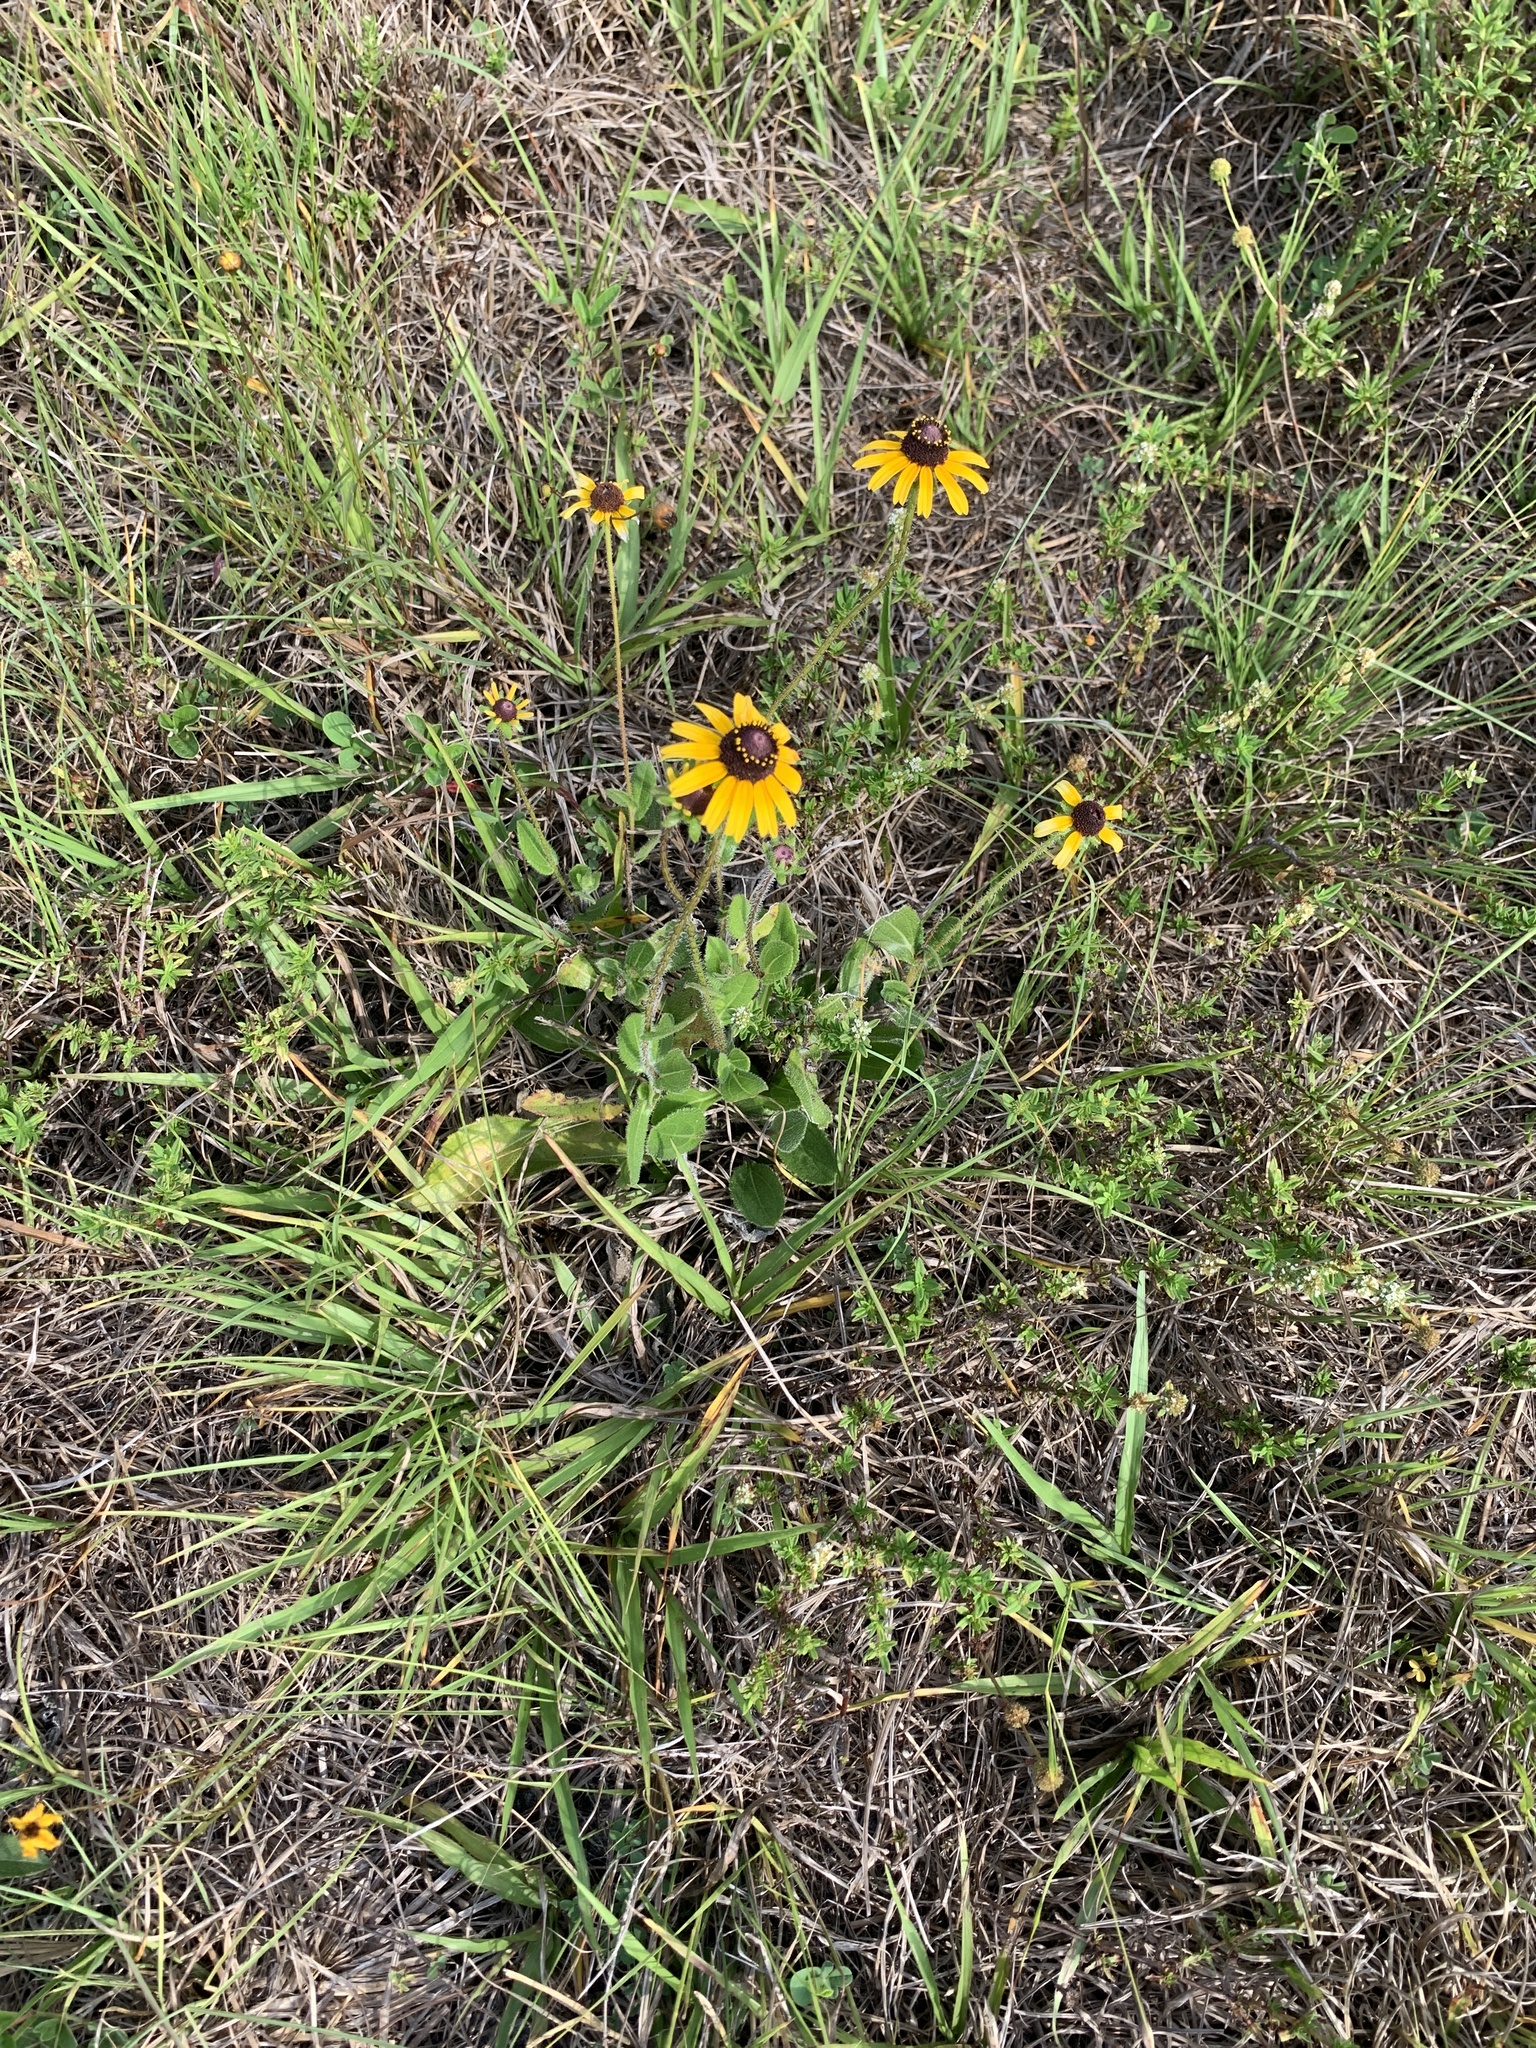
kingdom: Plantae
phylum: Tracheophyta
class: Magnoliopsida
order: Asterales
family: Asteraceae
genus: Rudbeckia
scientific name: Rudbeckia hirta
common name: Black-eyed-susan
